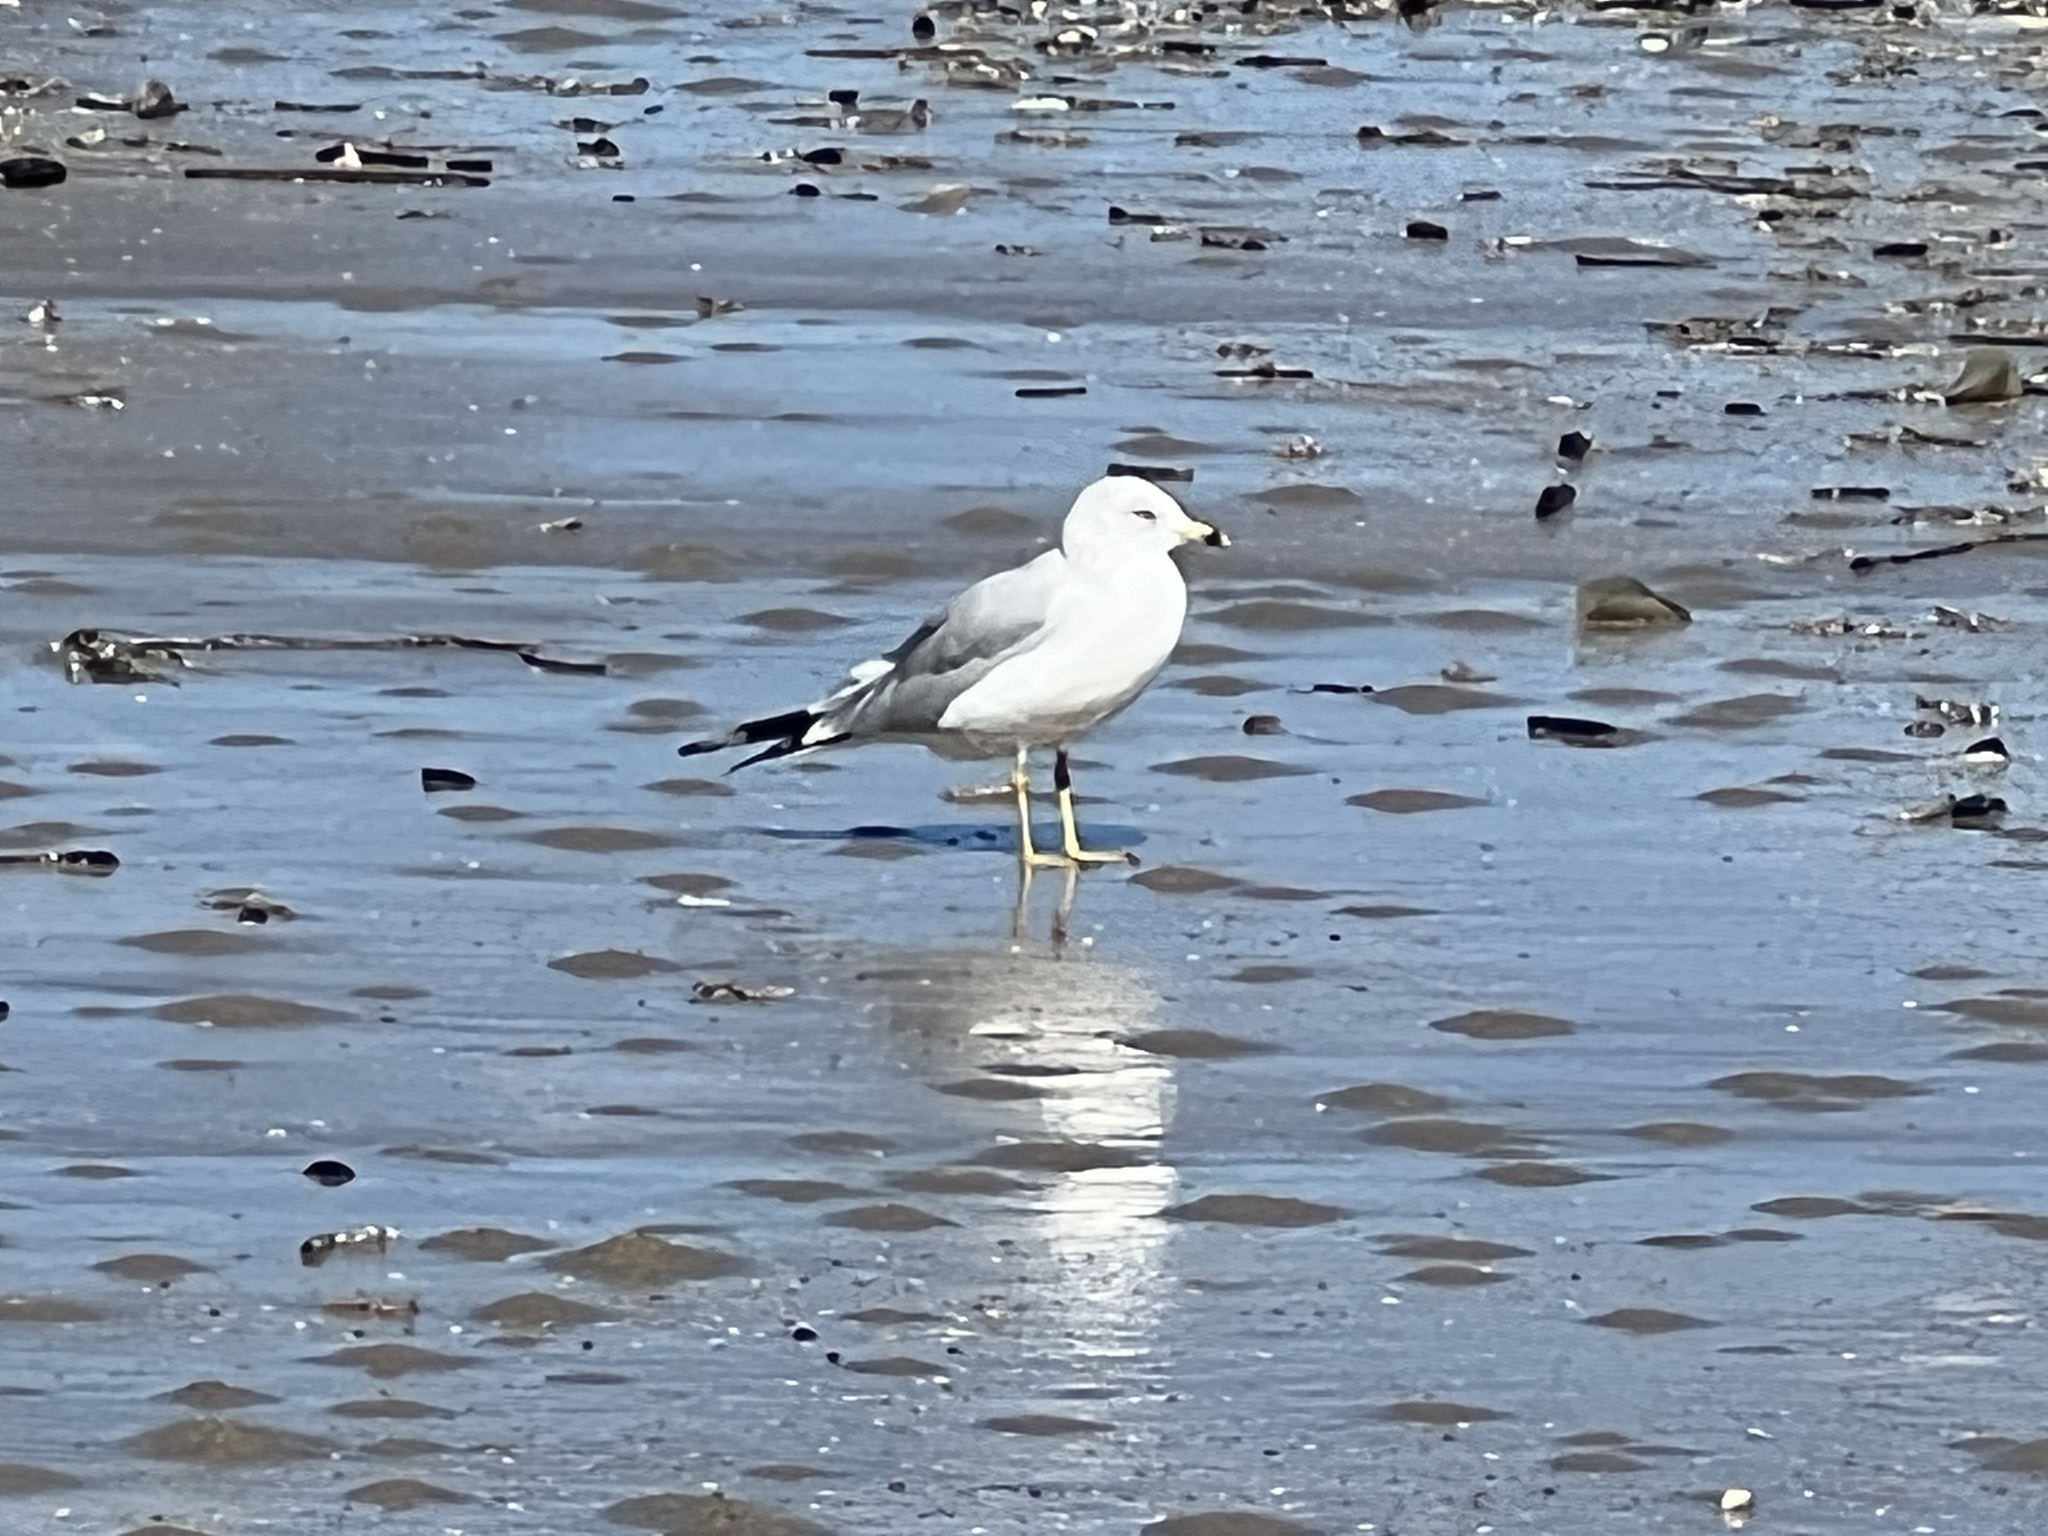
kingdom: Animalia
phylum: Chordata
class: Aves
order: Charadriiformes
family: Laridae
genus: Larus
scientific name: Larus delawarensis
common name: Ring-billed gull
